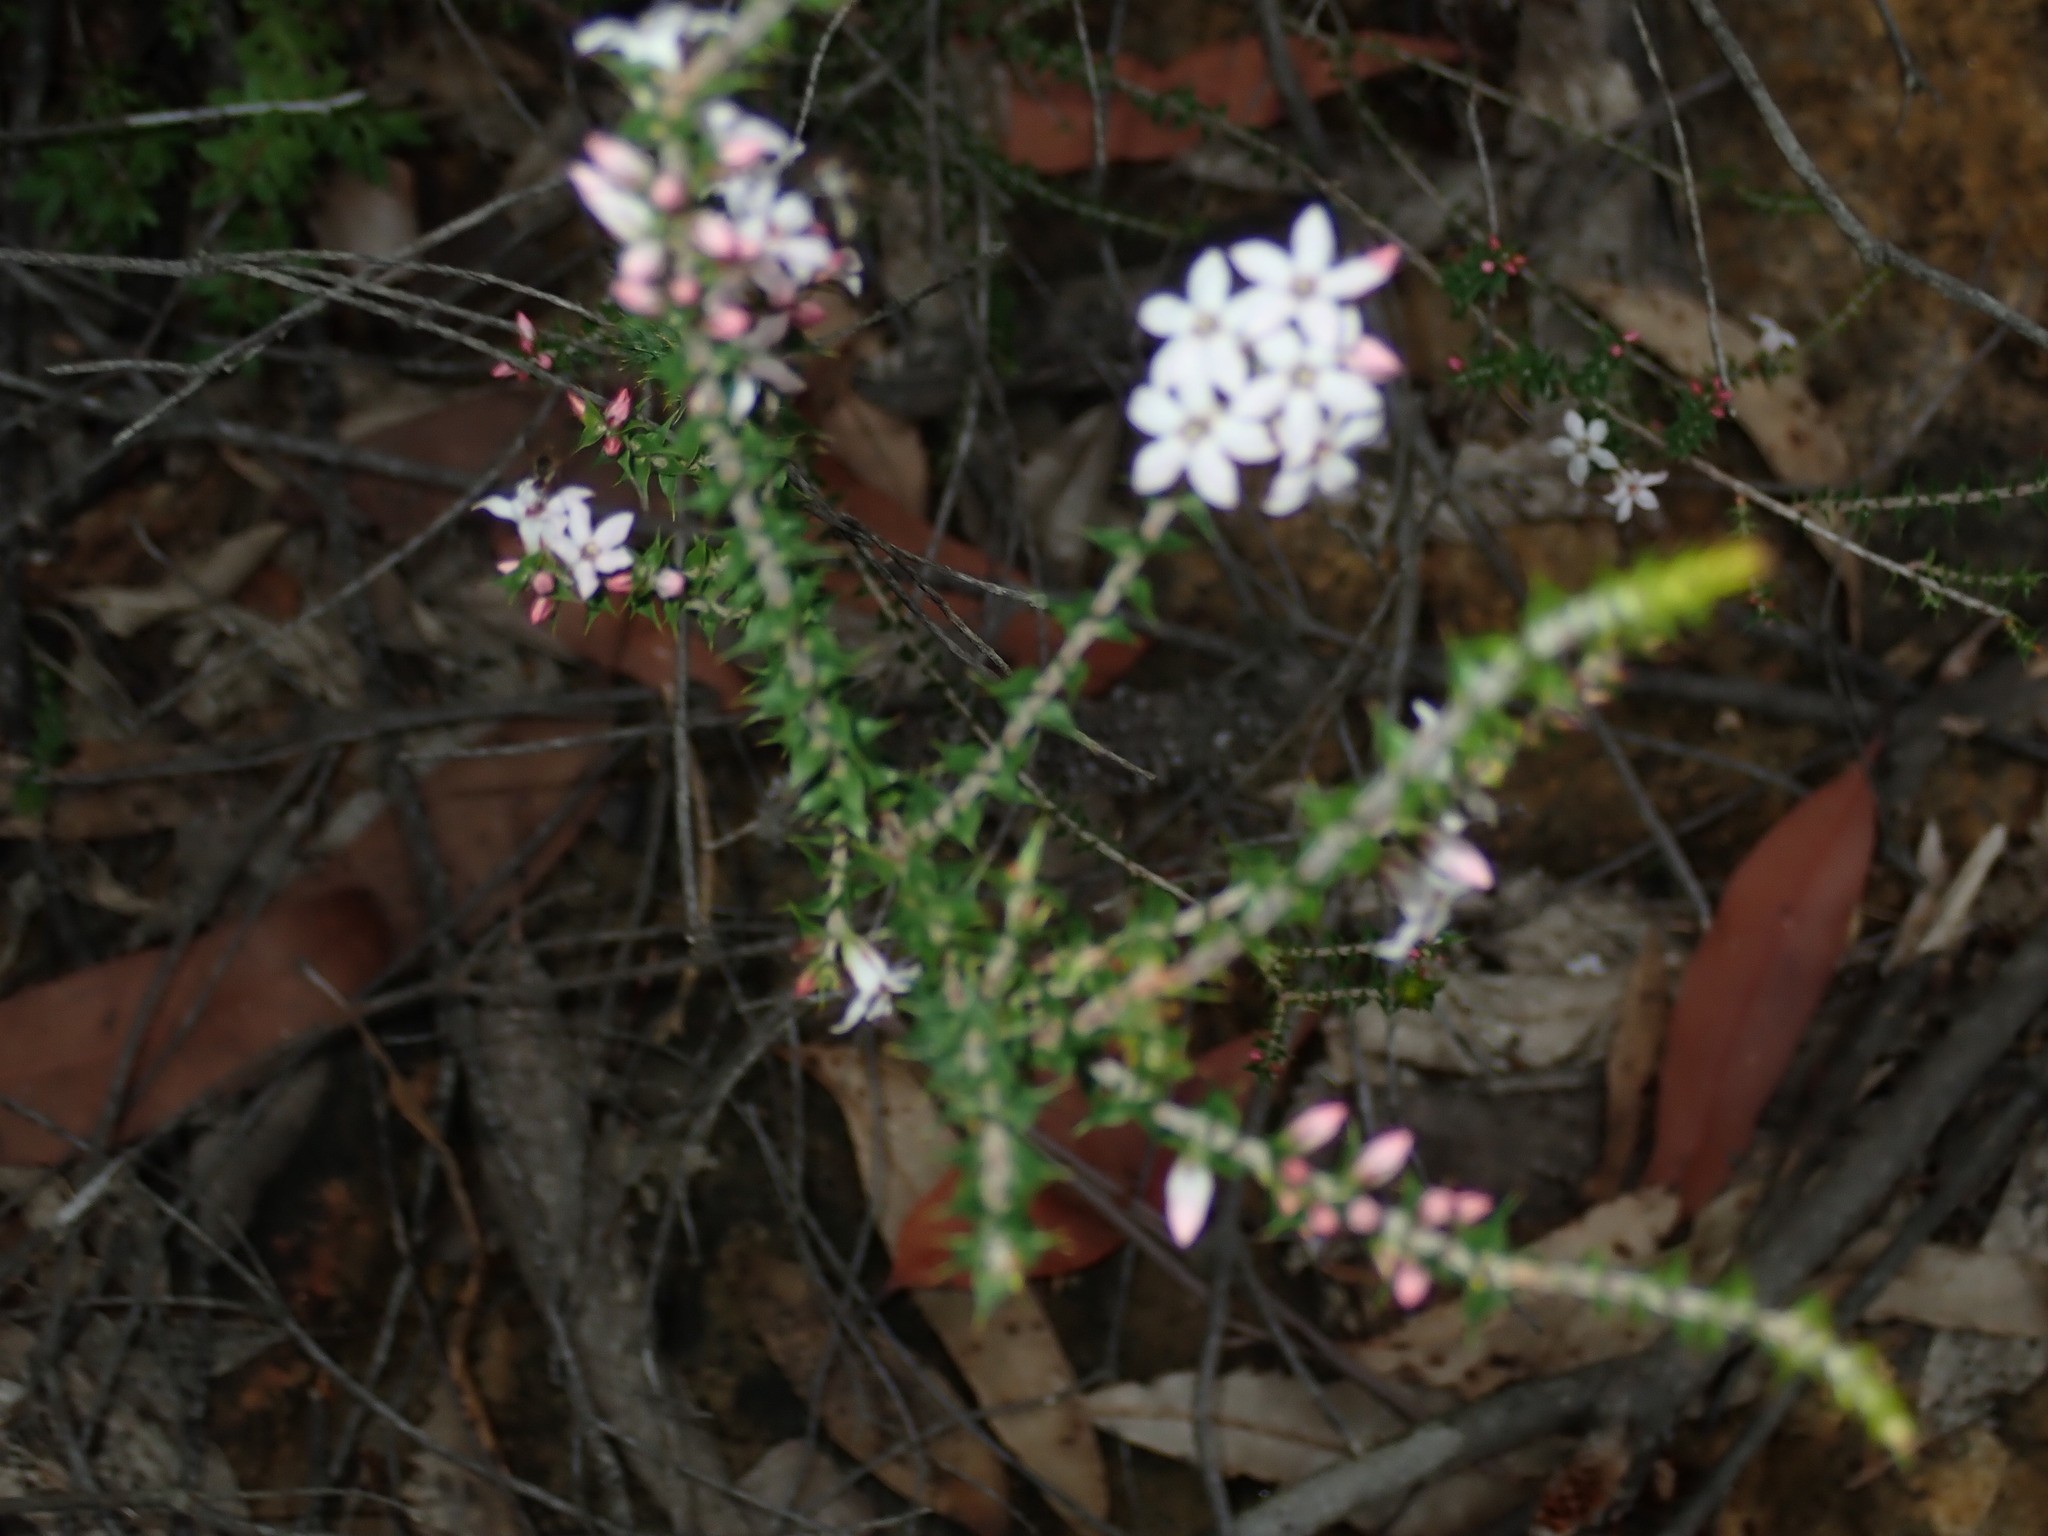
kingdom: Plantae
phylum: Tracheophyta
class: Magnoliopsida
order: Ericales
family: Ericaceae
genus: Epacris
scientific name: Epacris pulchella
